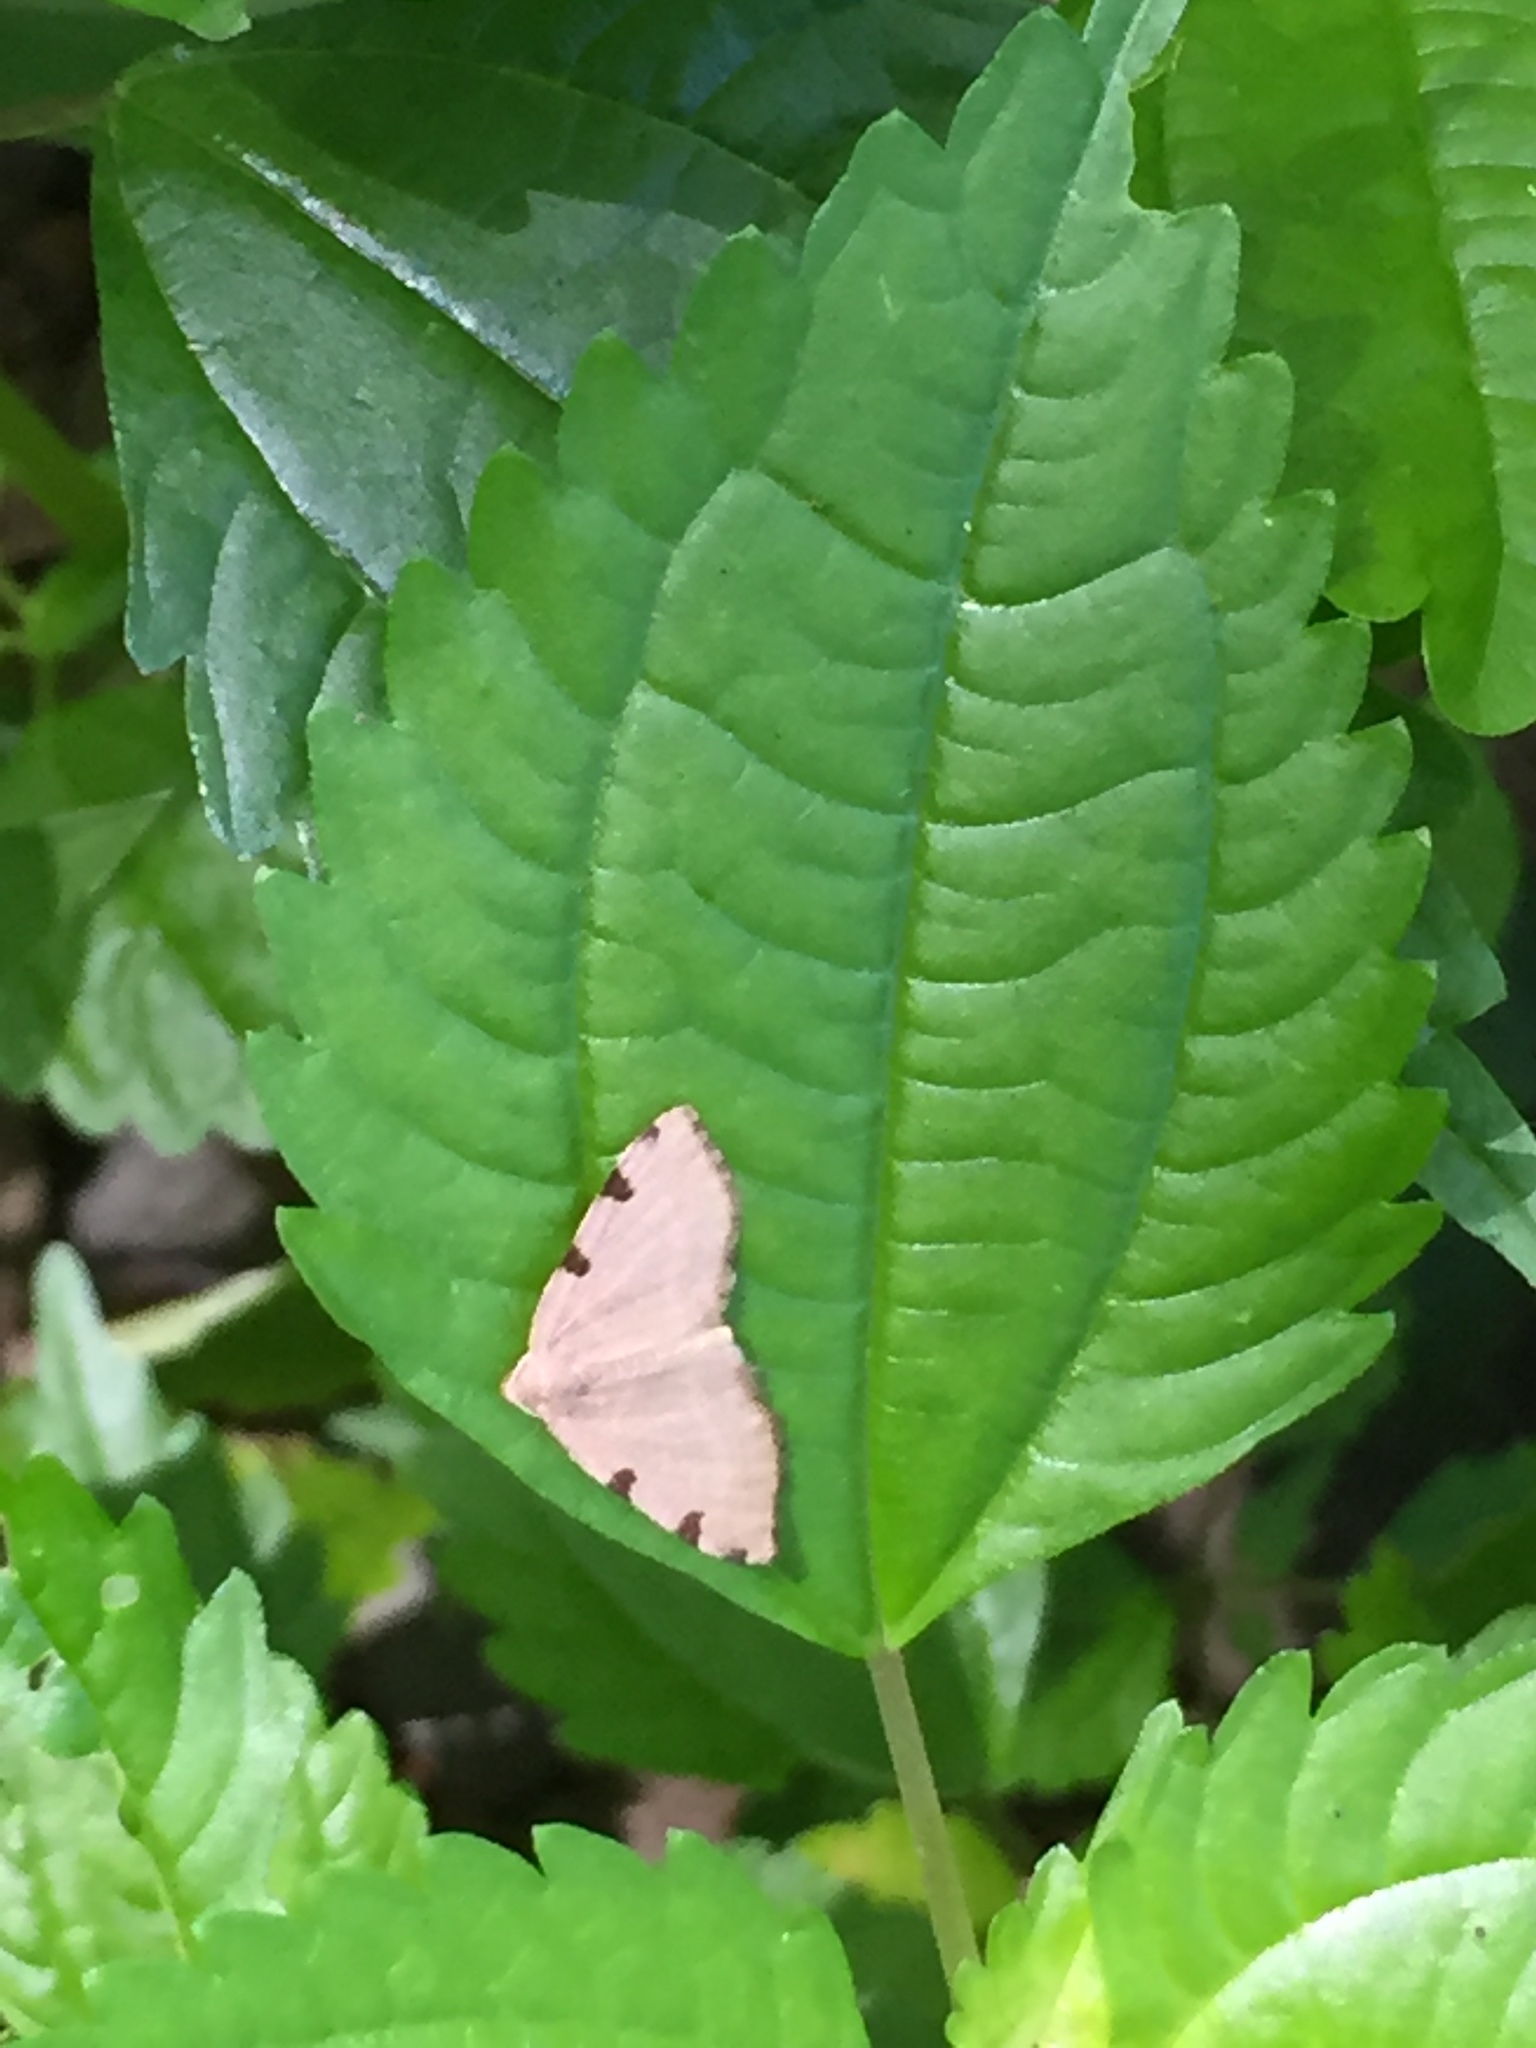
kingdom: Animalia
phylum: Arthropoda
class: Insecta
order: Lepidoptera
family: Geometridae
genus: Heterophleps
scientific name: Heterophleps triguttaria
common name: Three-spotted fillip
